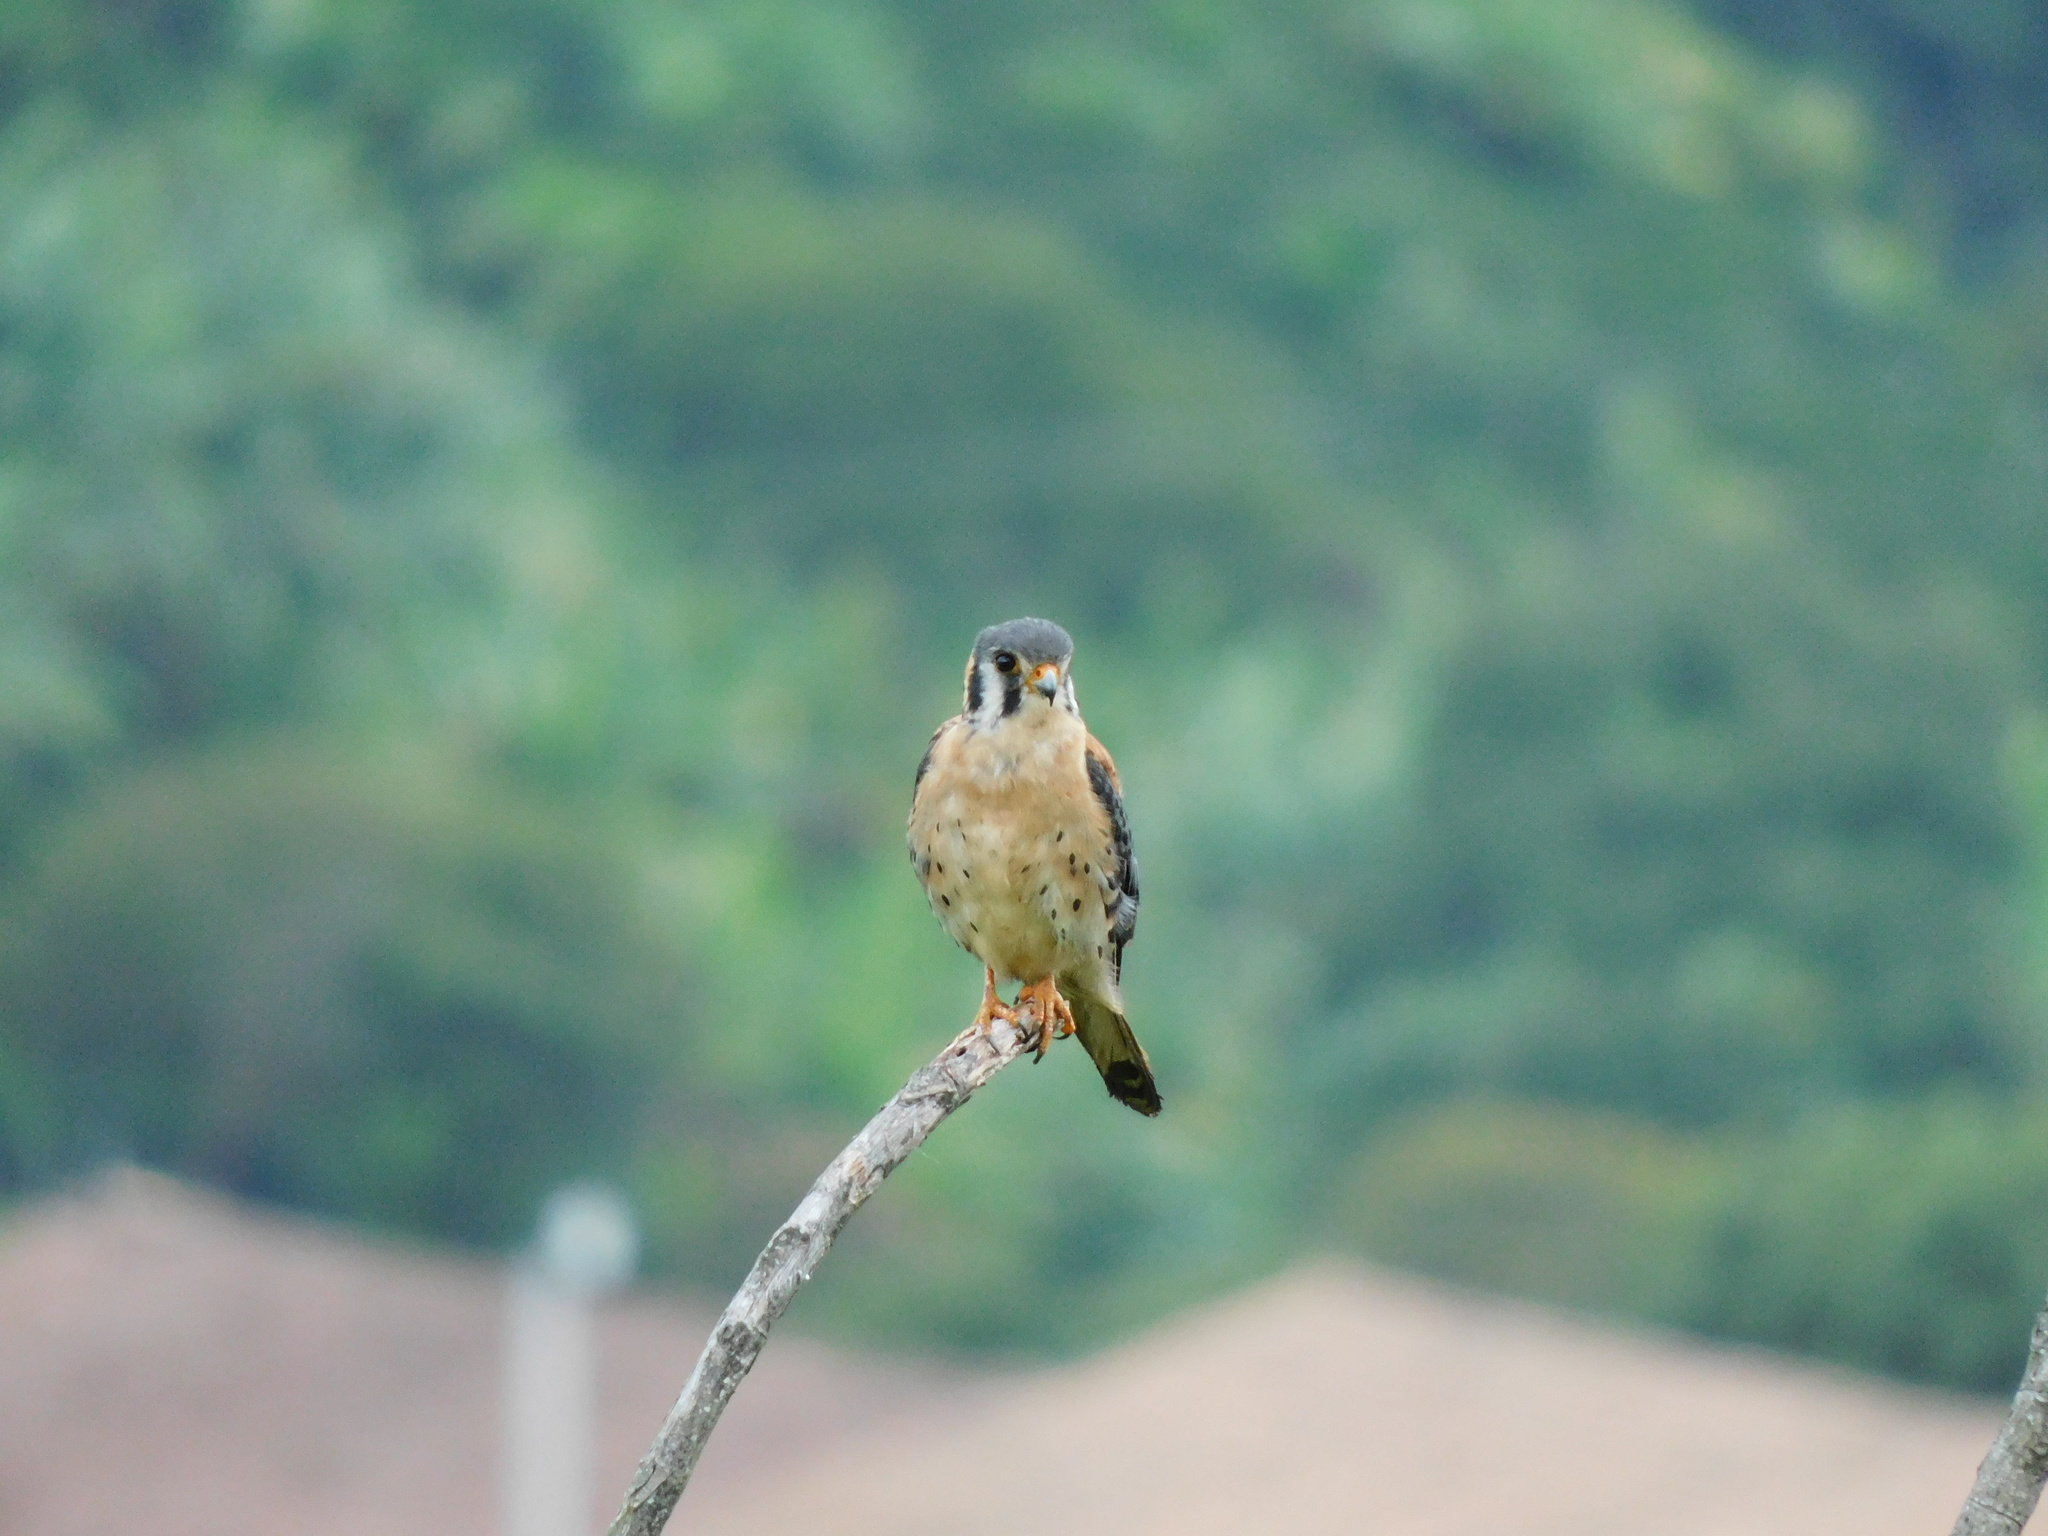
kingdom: Animalia
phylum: Chordata
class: Aves
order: Falconiformes
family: Falconidae
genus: Falco
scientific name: Falco sparverius
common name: American kestrel
